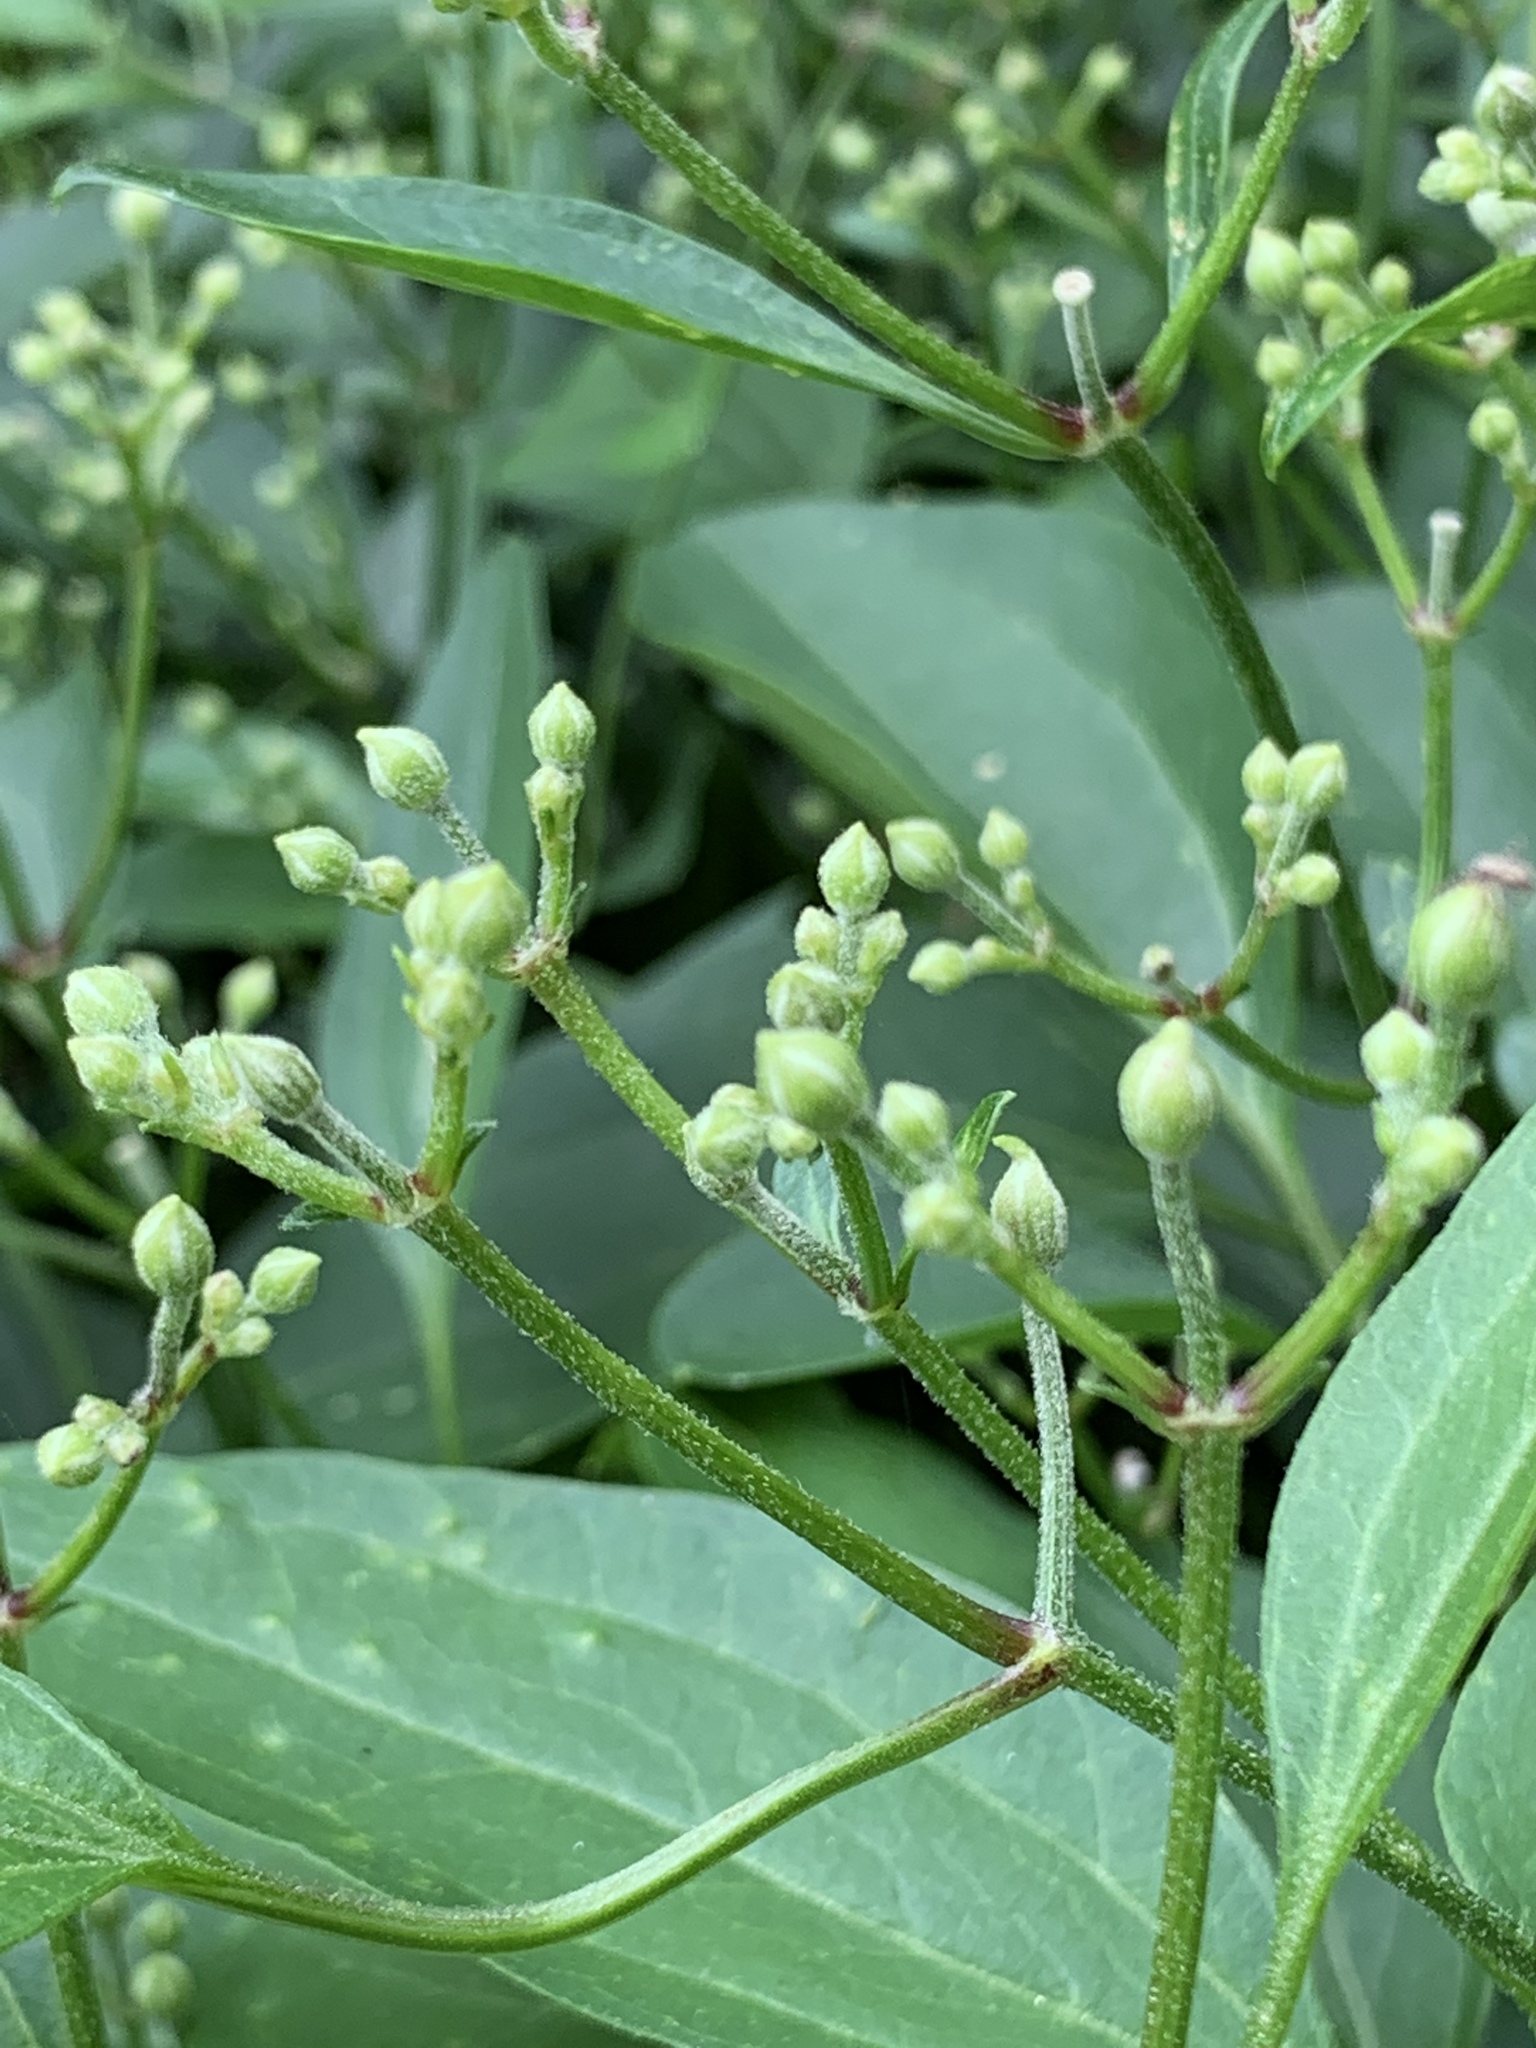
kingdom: Plantae
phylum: Tracheophyta
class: Magnoliopsida
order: Ranunculales
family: Ranunculaceae
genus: Clematis
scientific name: Clematis terniflora
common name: Sweet autumn clematis
